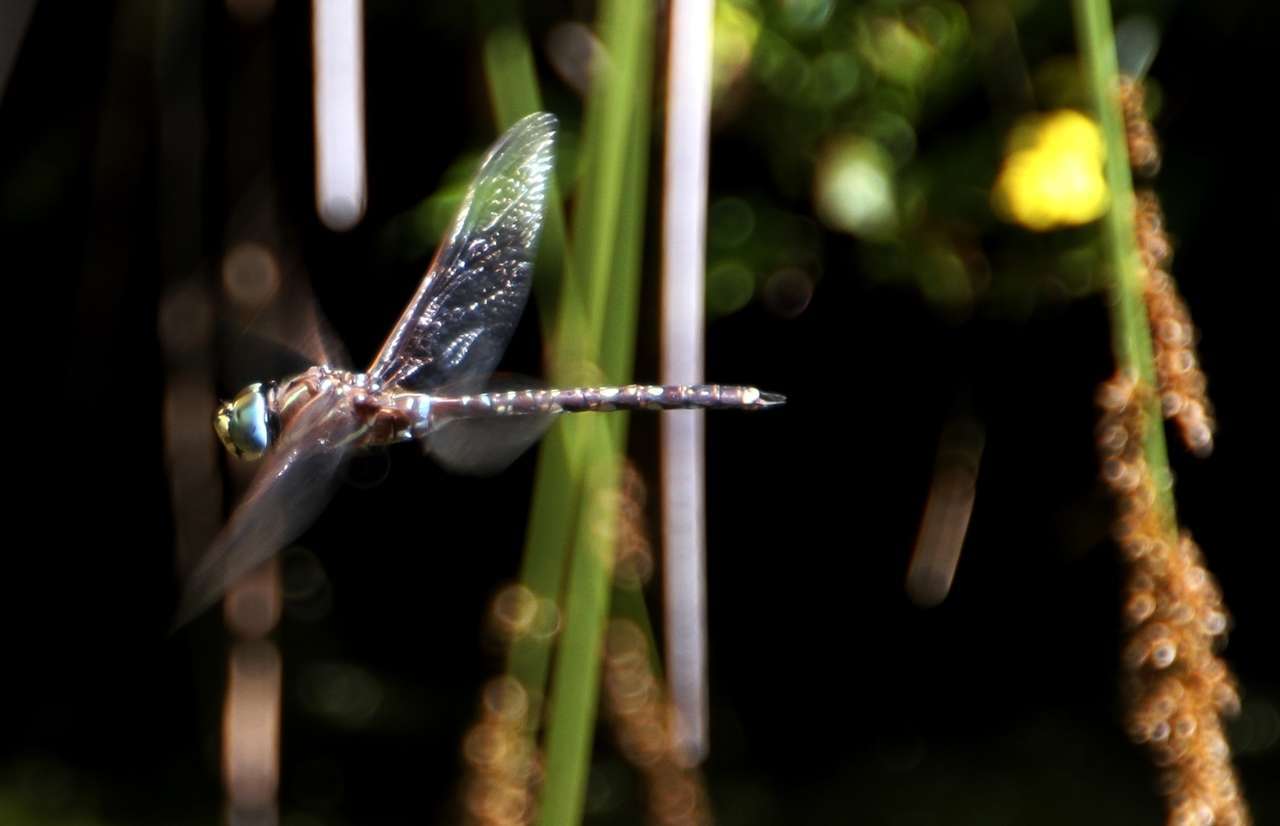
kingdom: Animalia
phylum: Arthropoda
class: Insecta
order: Odonata
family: Aeshnidae
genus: Aeshna
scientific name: Aeshna brevistyla
